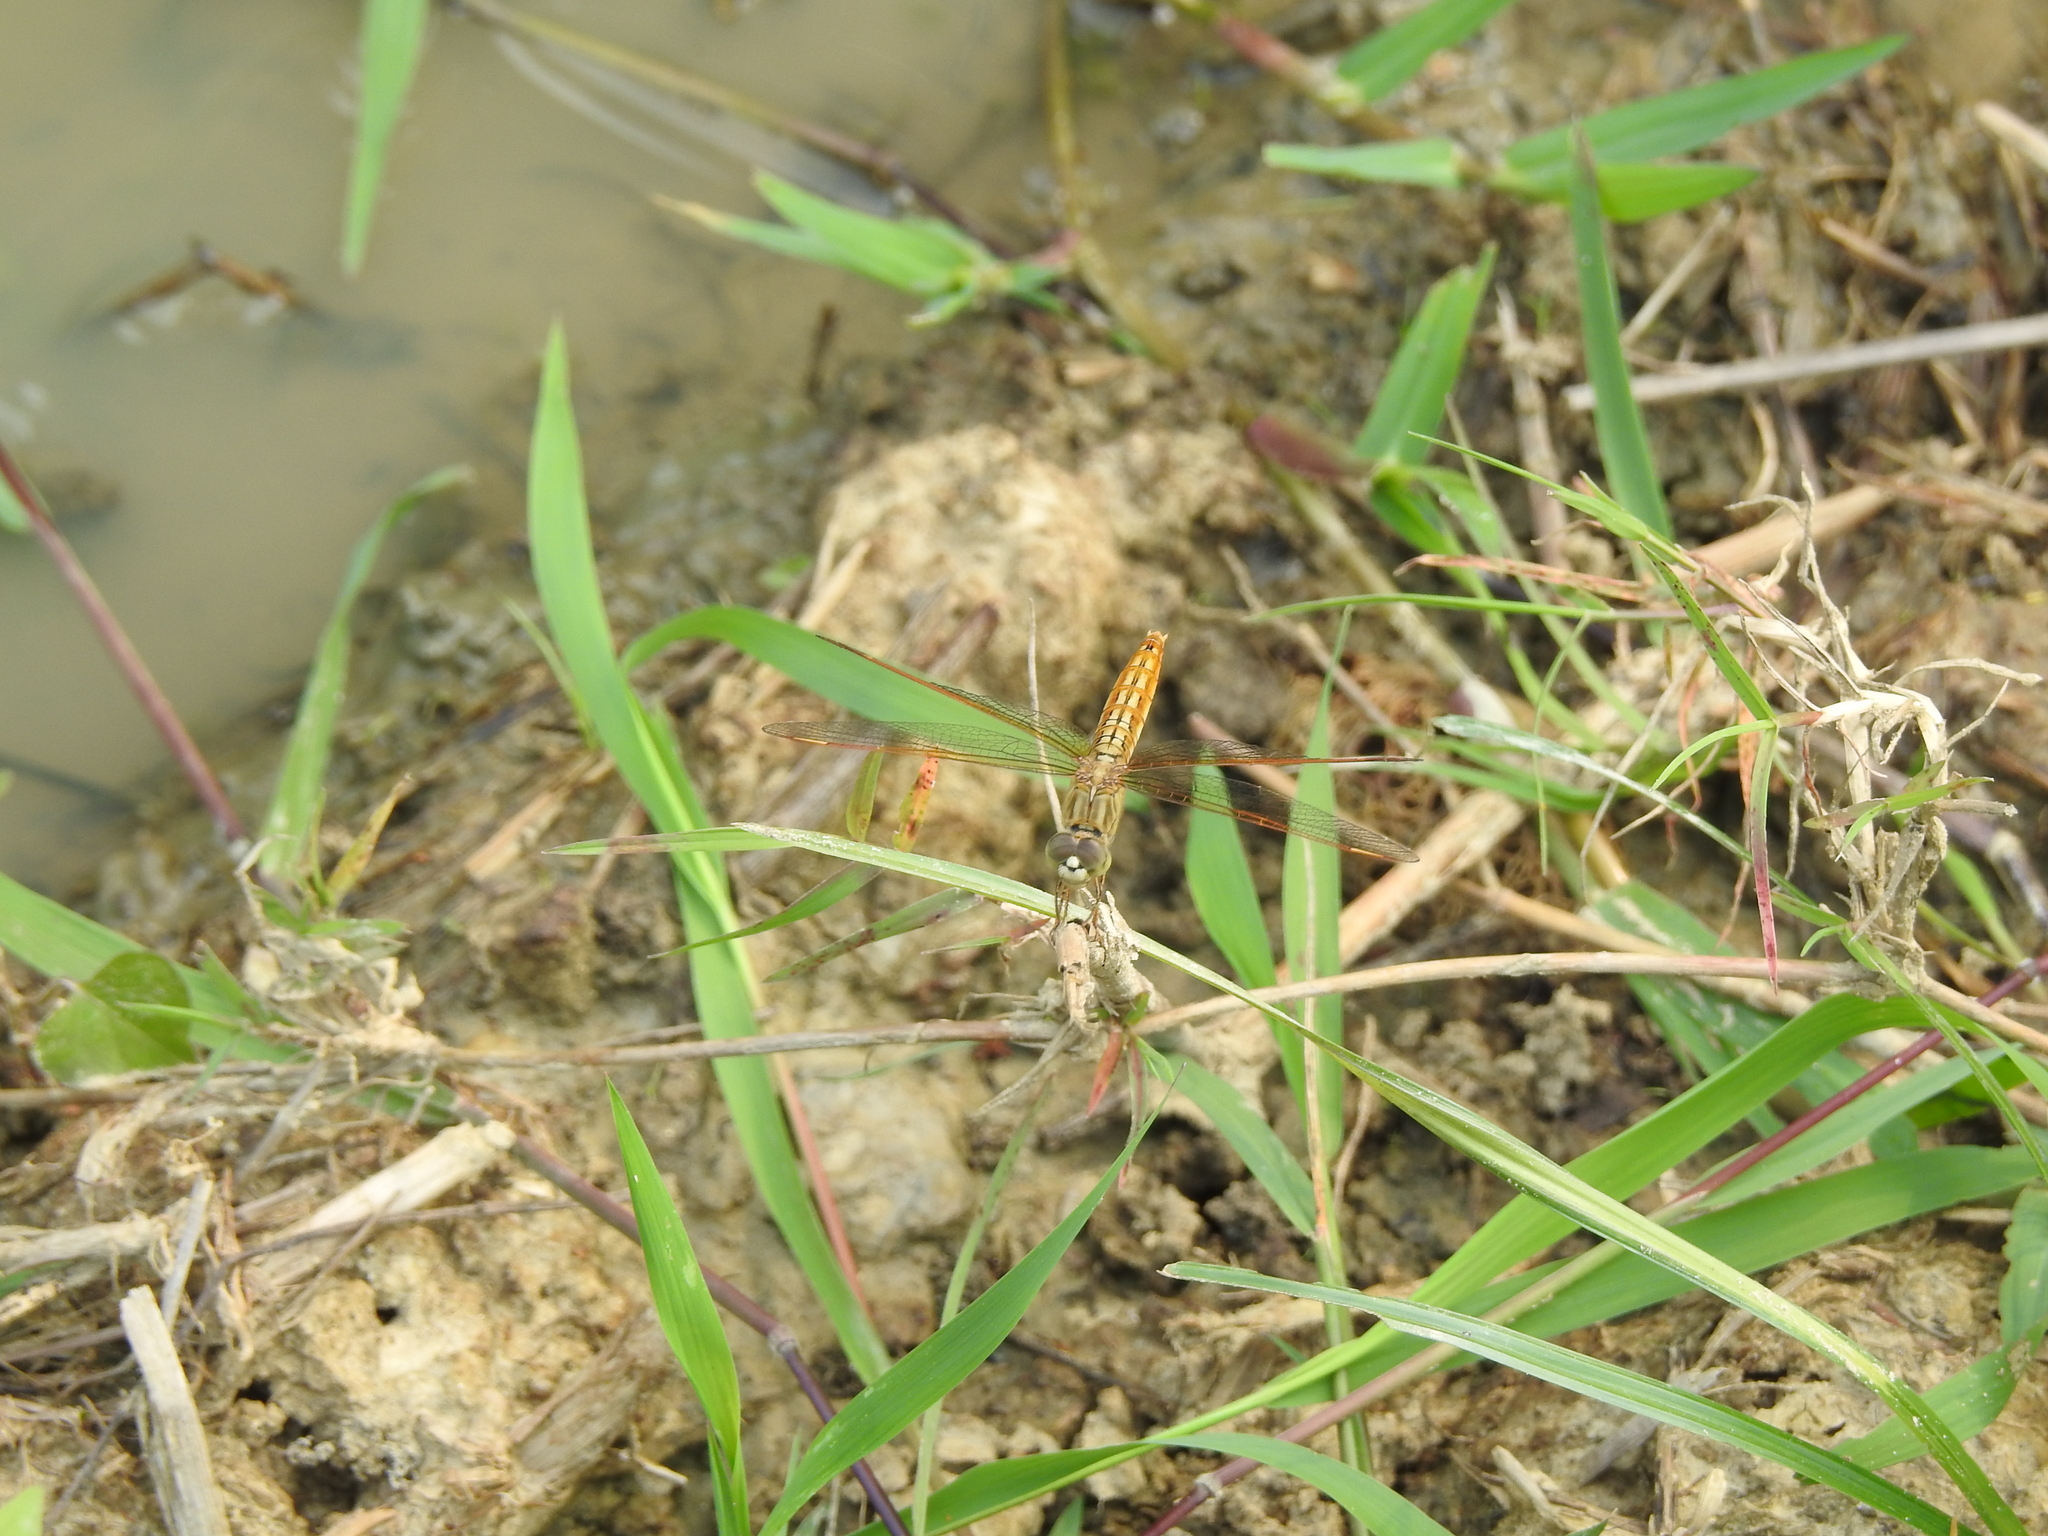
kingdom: Animalia
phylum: Arthropoda
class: Insecta
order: Odonata
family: Libellulidae
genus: Brachythemis
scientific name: Brachythemis contaminata
